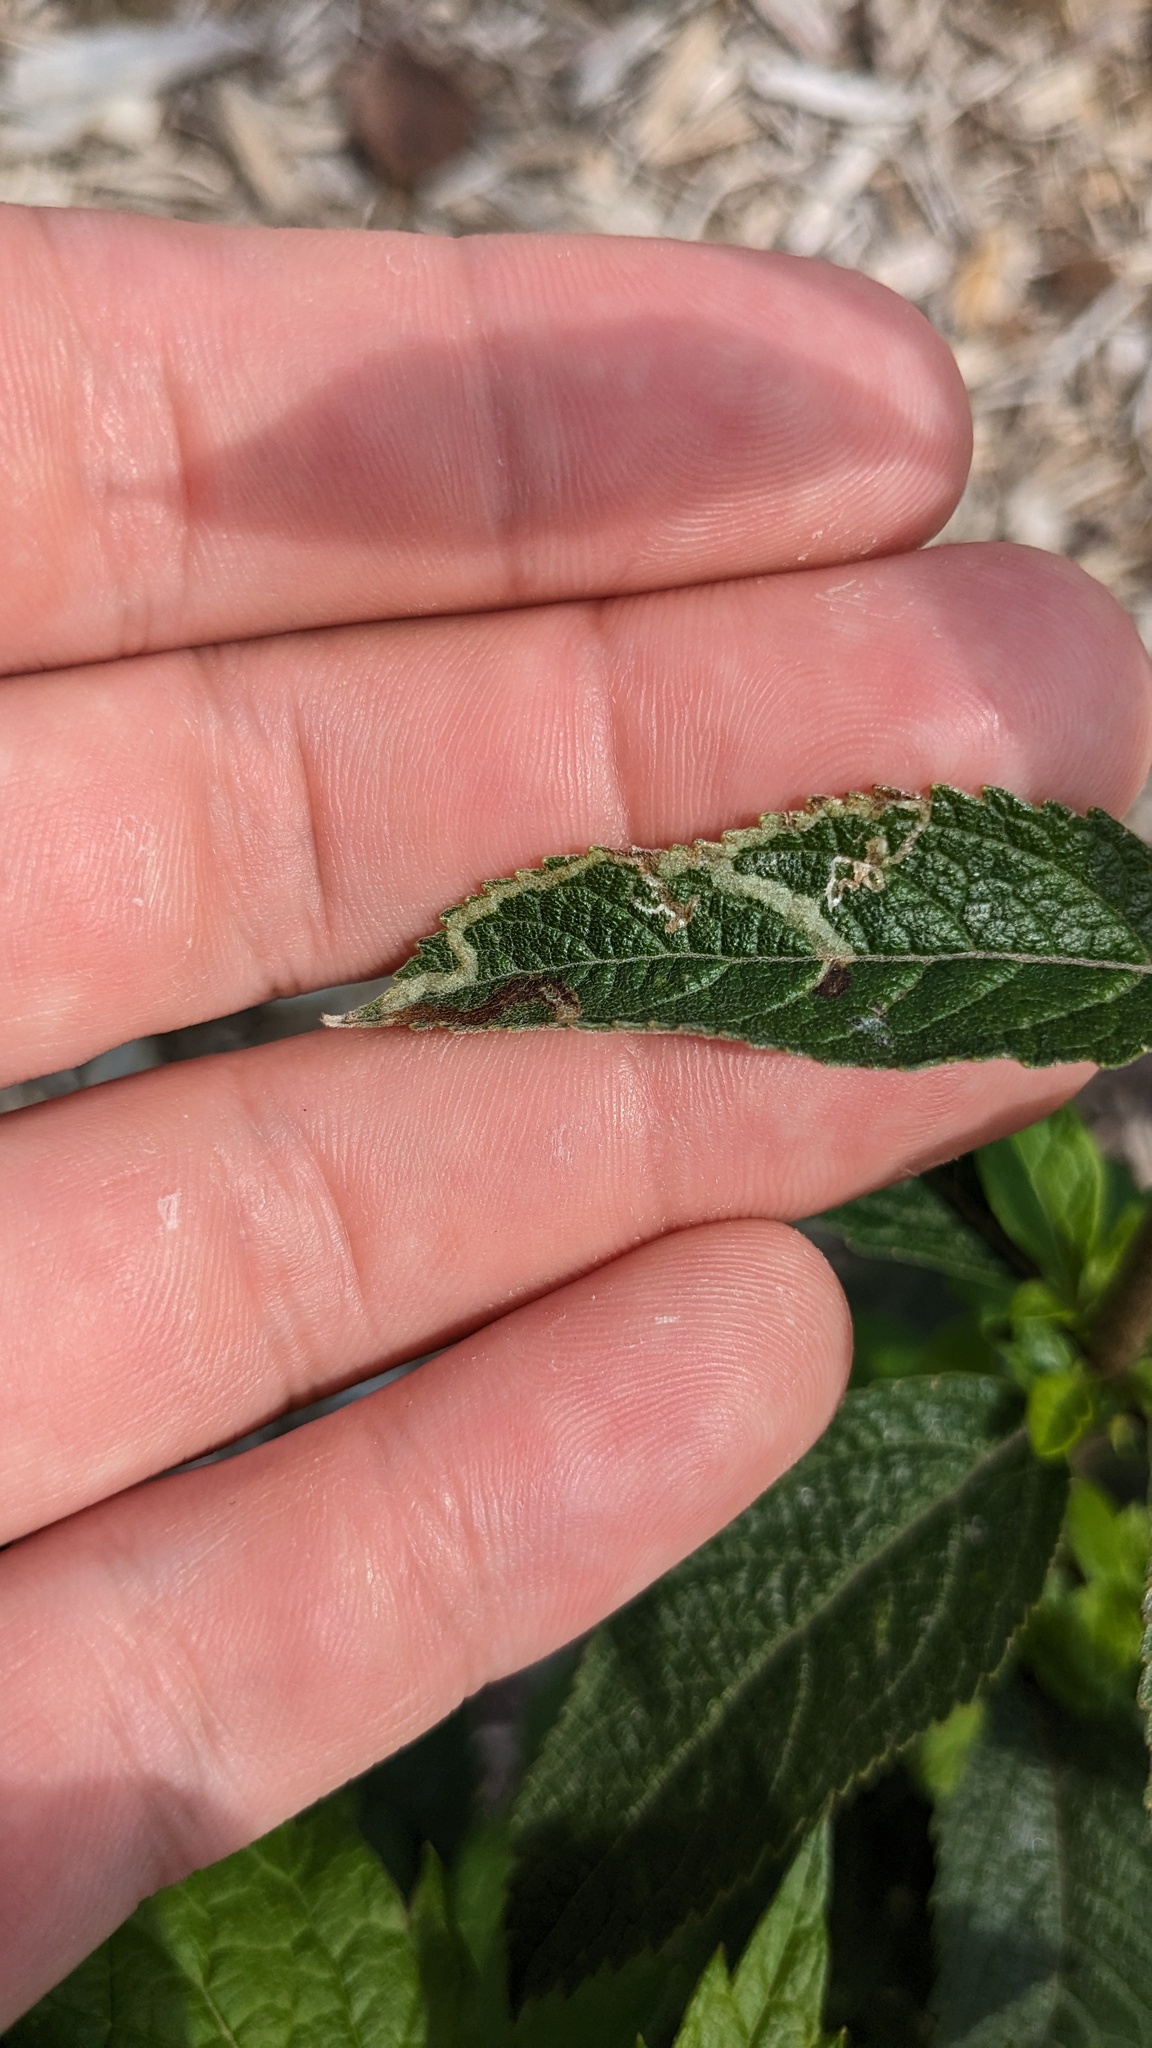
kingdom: Animalia
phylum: Arthropoda
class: Insecta
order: Diptera
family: Agromyzidae
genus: Liriomyza
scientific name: Liriomyza cracentis
